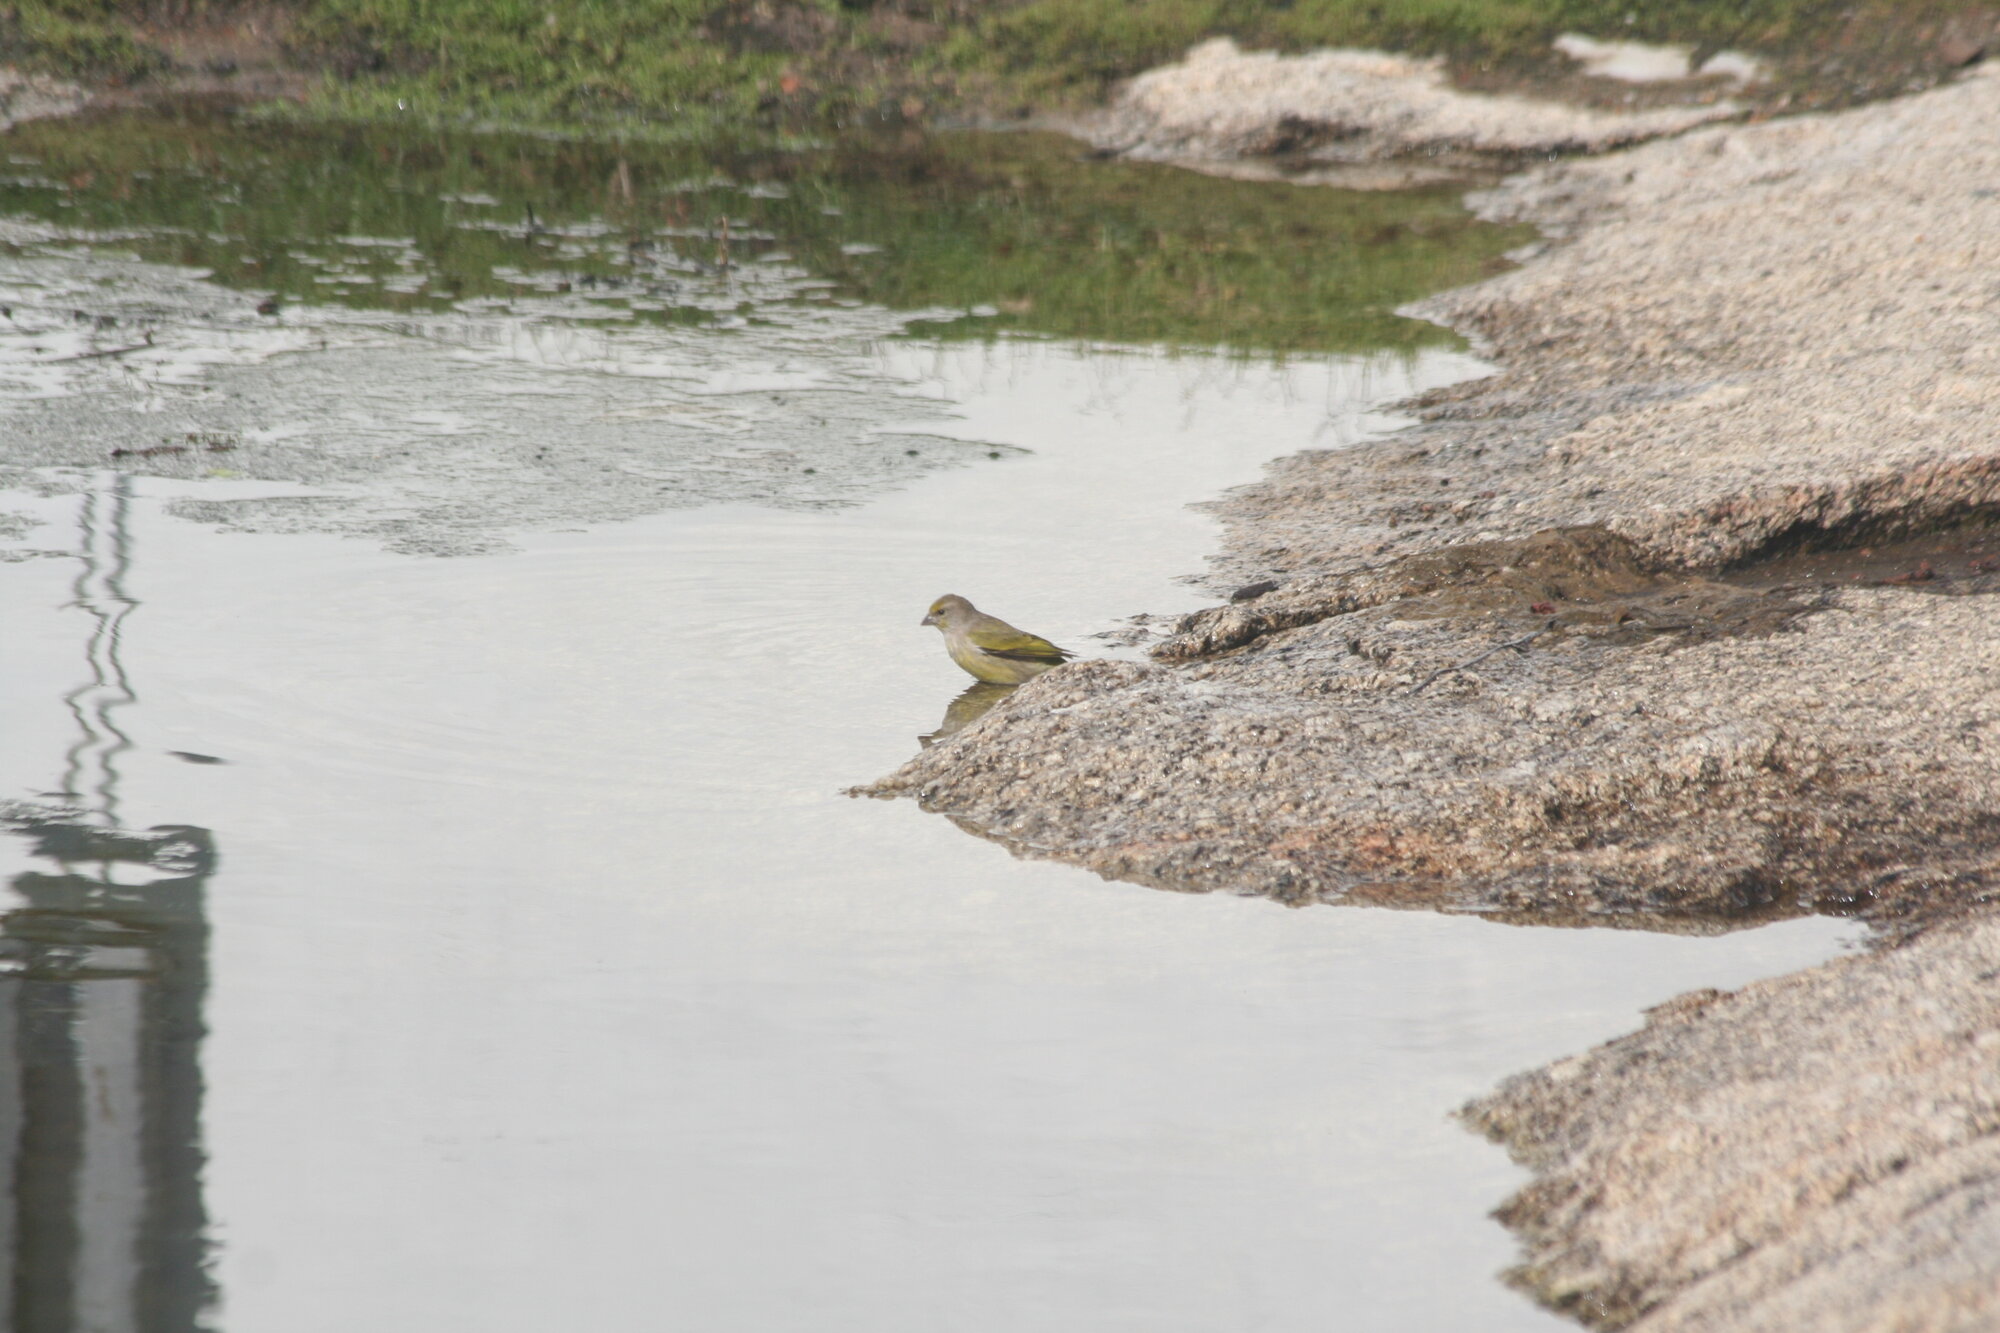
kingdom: Animalia
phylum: Chordata
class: Aves
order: Passeriformes
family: Fringillidae
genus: Serinus
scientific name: Serinus canicollis
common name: Cape canary
